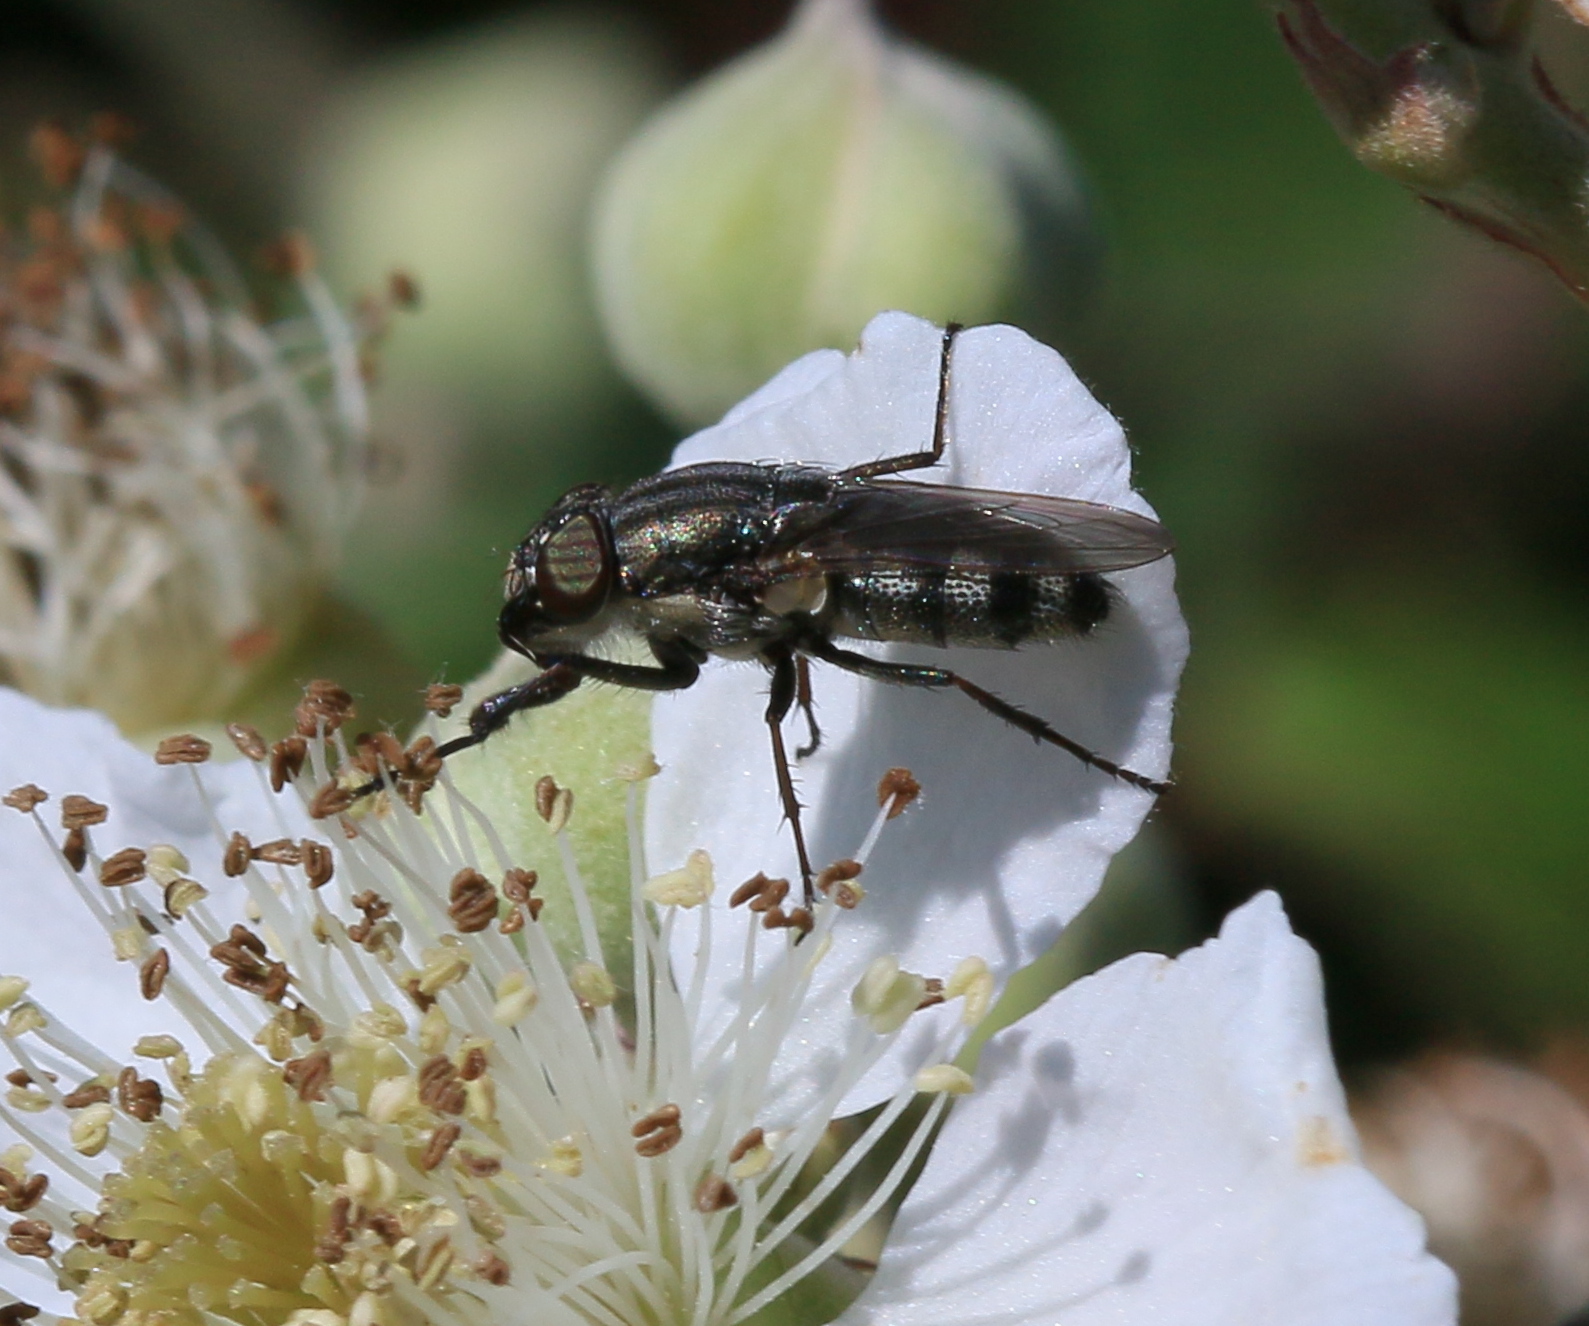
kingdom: Animalia
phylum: Arthropoda
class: Insecta
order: Diptera
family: Calliphoridae
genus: Stomorhina
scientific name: Stomorhina lunata
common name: Locust blowfly
